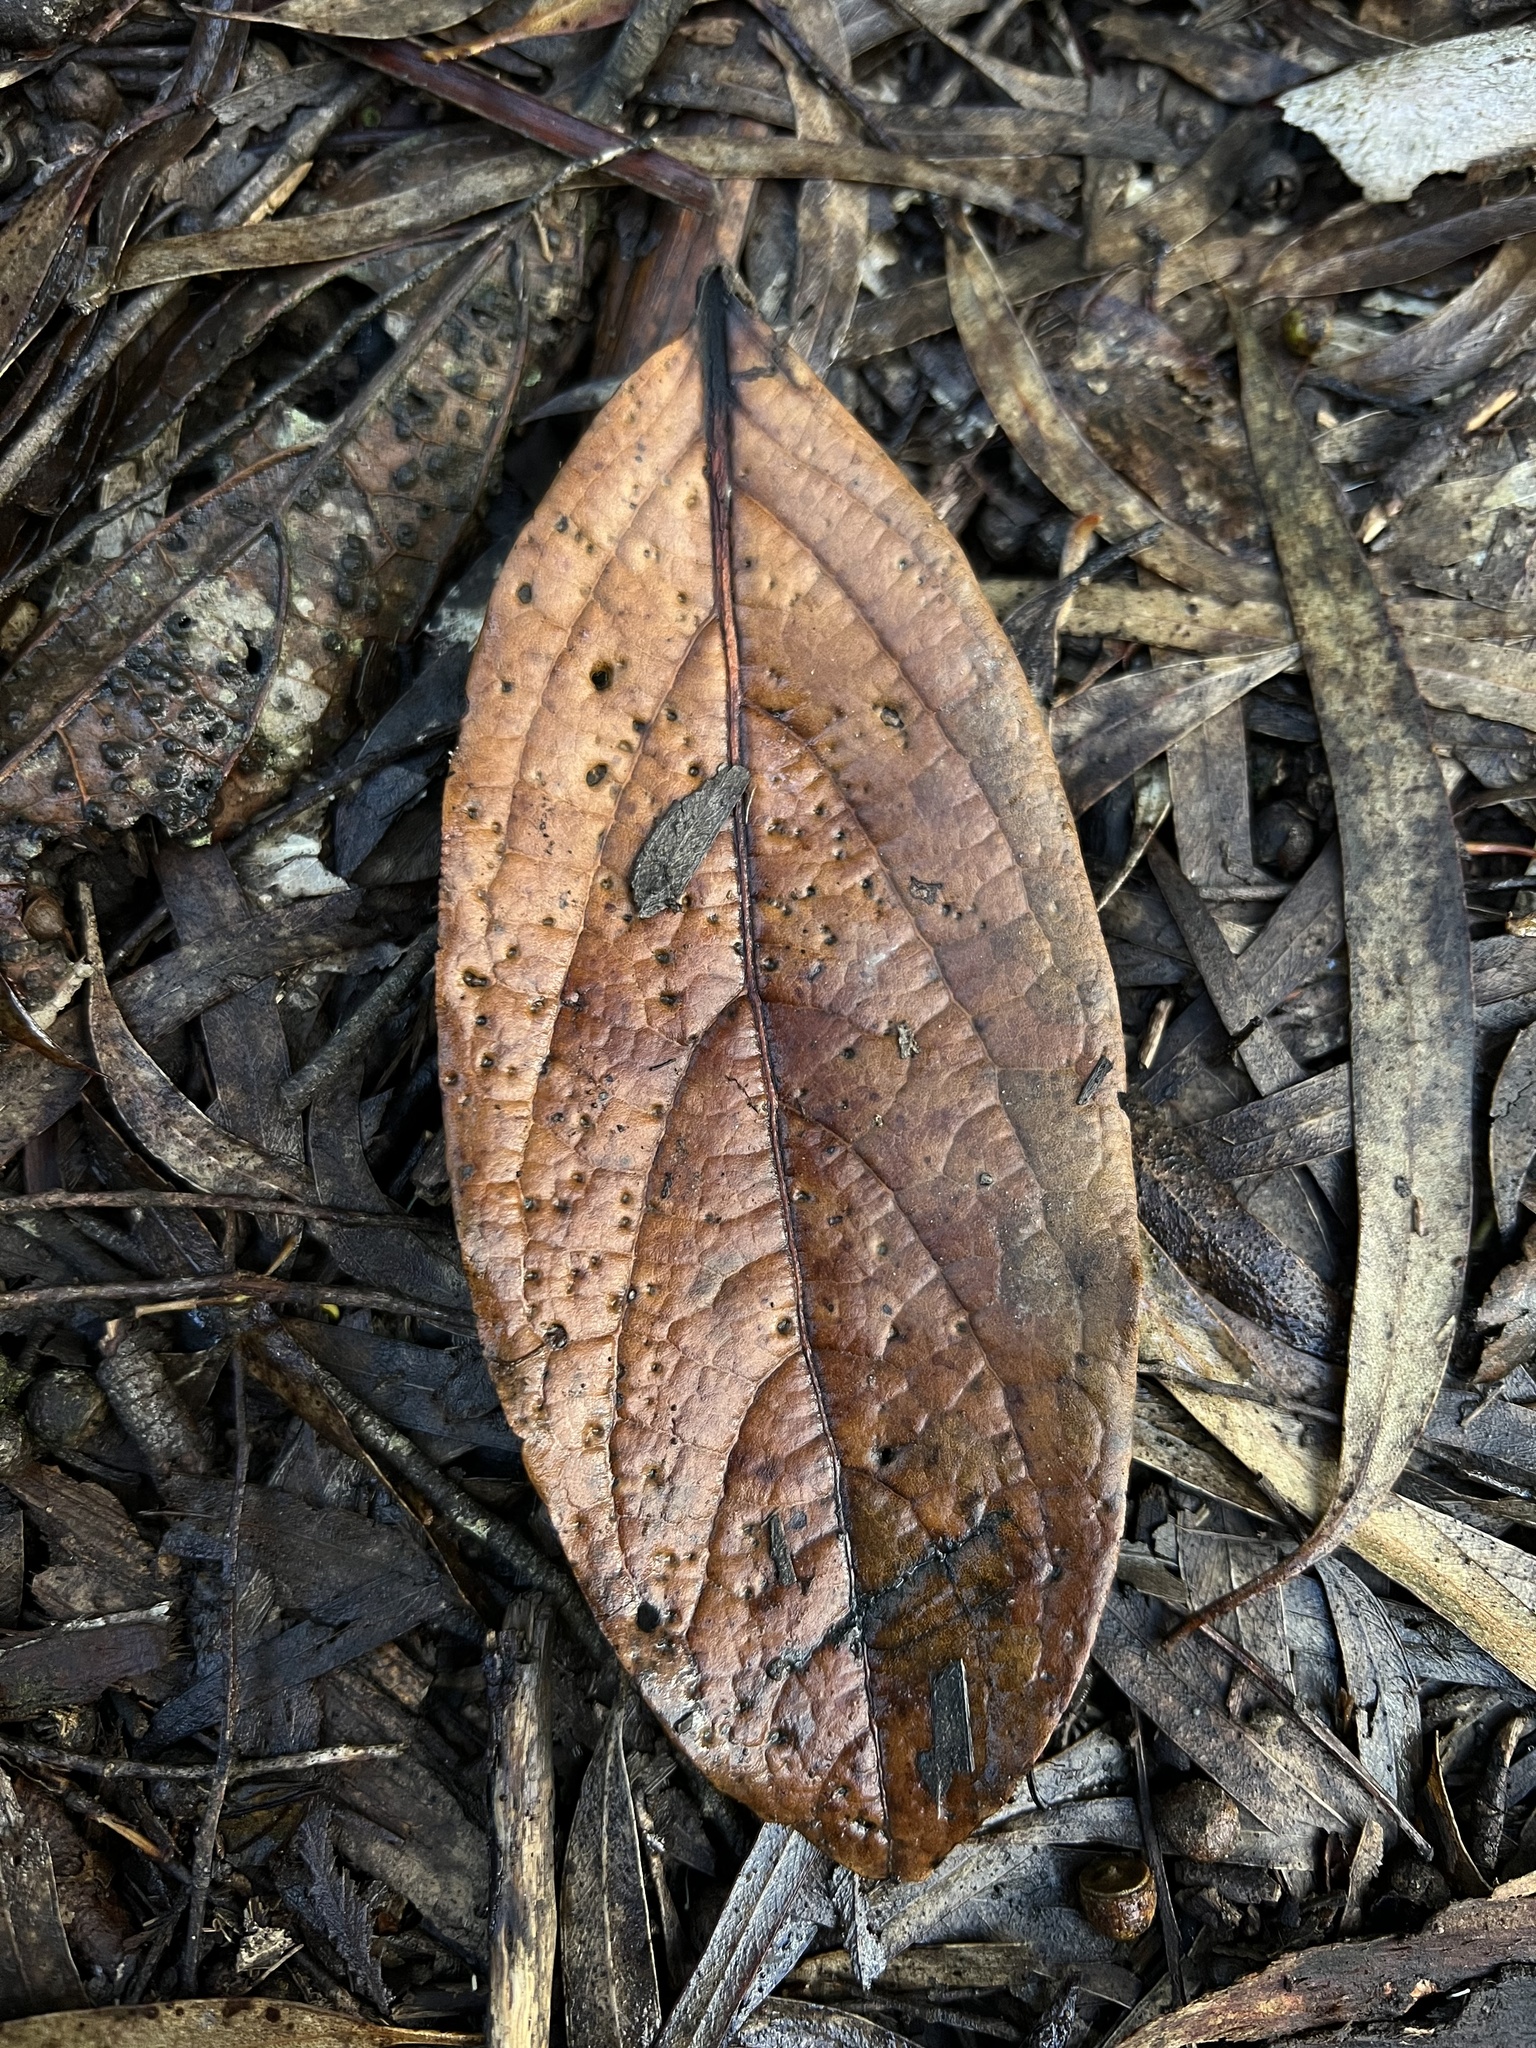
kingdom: Plantae
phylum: Tracheophyta
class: Magnoliopsida
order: Laurales
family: Lauraceae
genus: Ocotea
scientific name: Ocotea pedicellata
